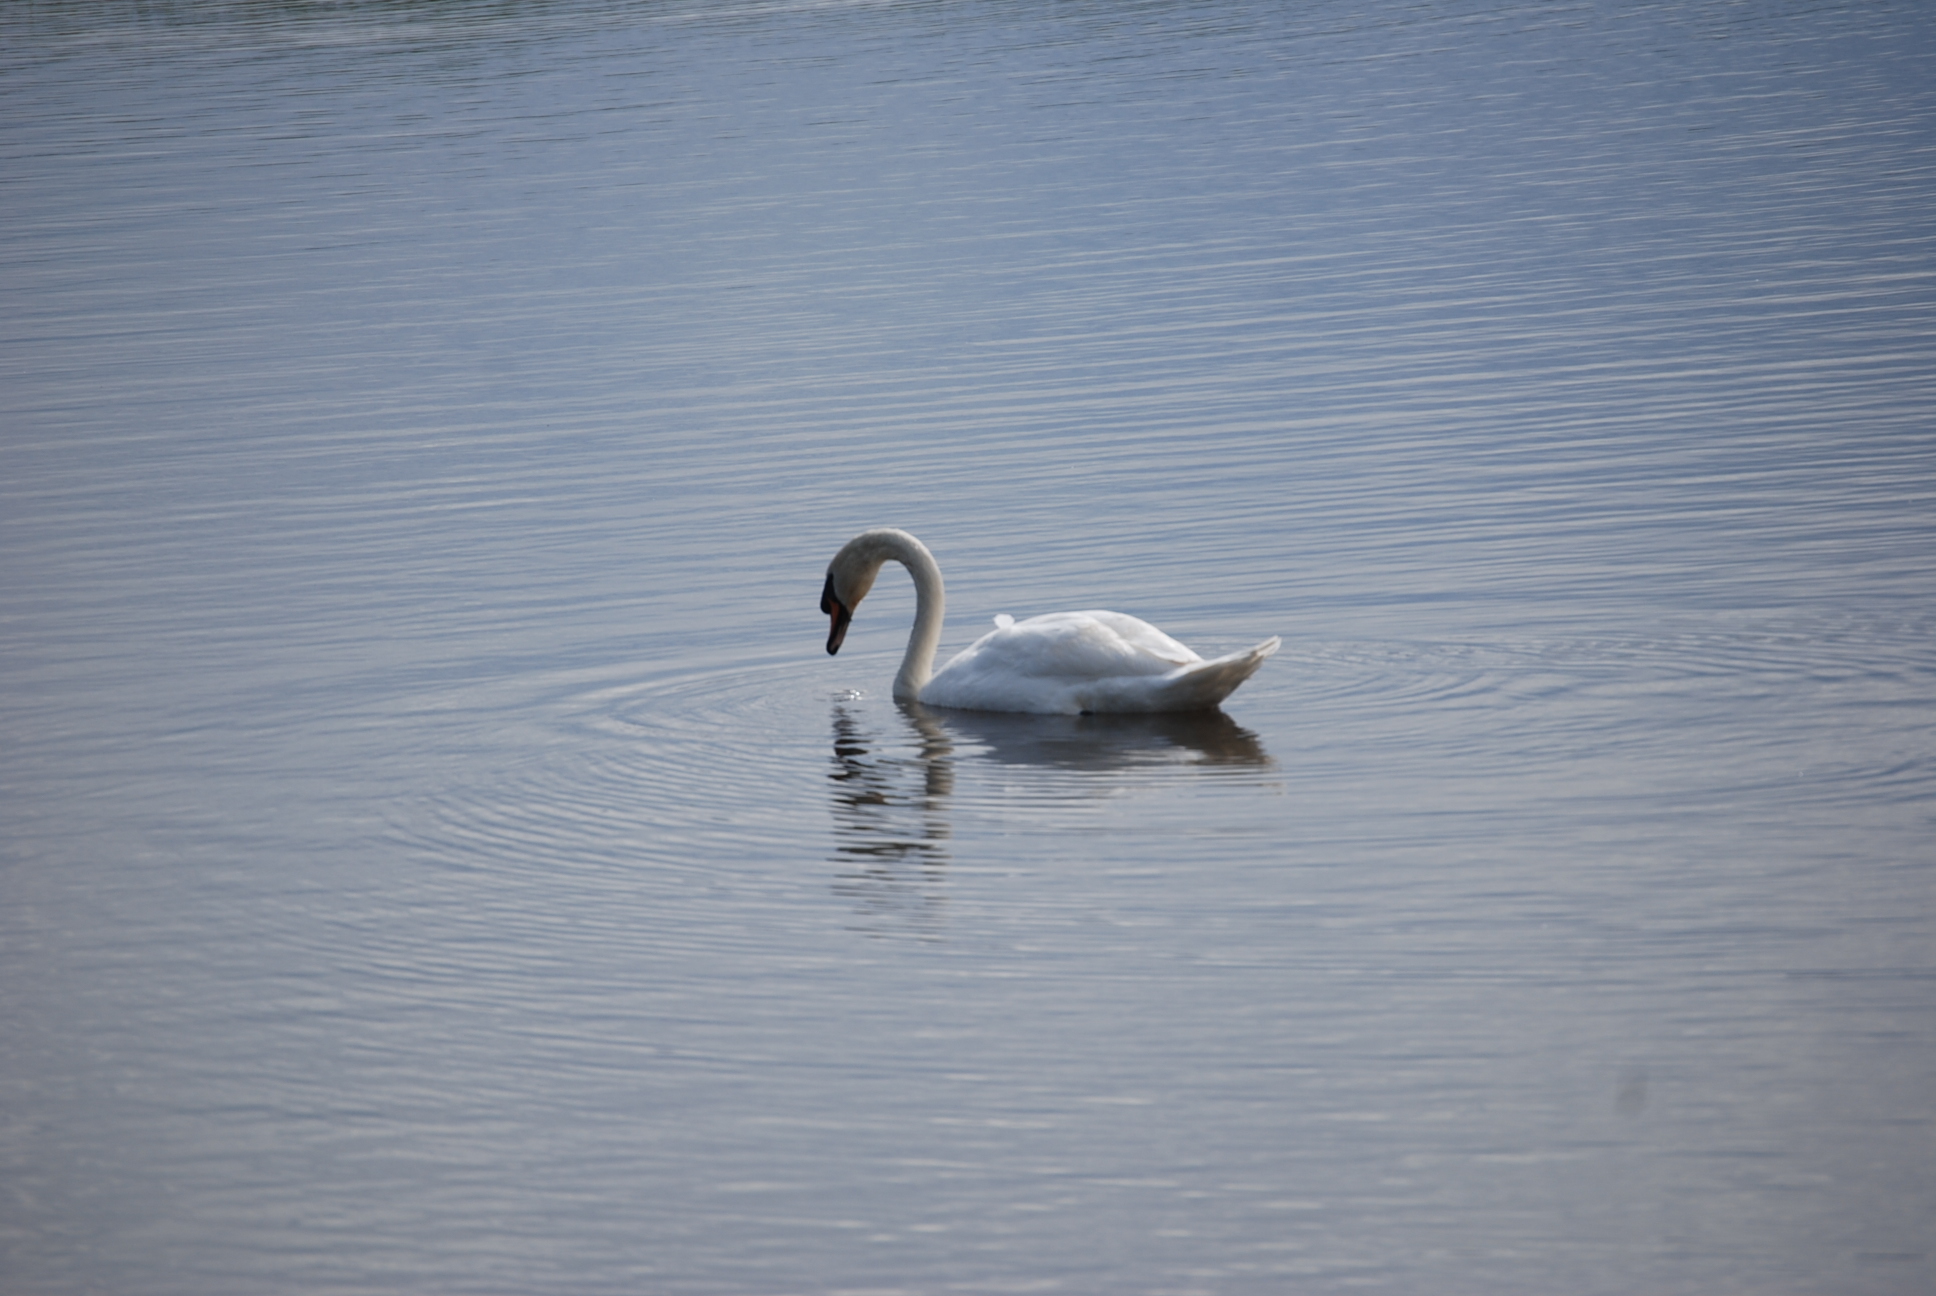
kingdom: Animalia
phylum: Chordata
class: Aves
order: Anseriformes
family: Anatidae
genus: Cygnus
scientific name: Cygnus olor
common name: Mute swan
